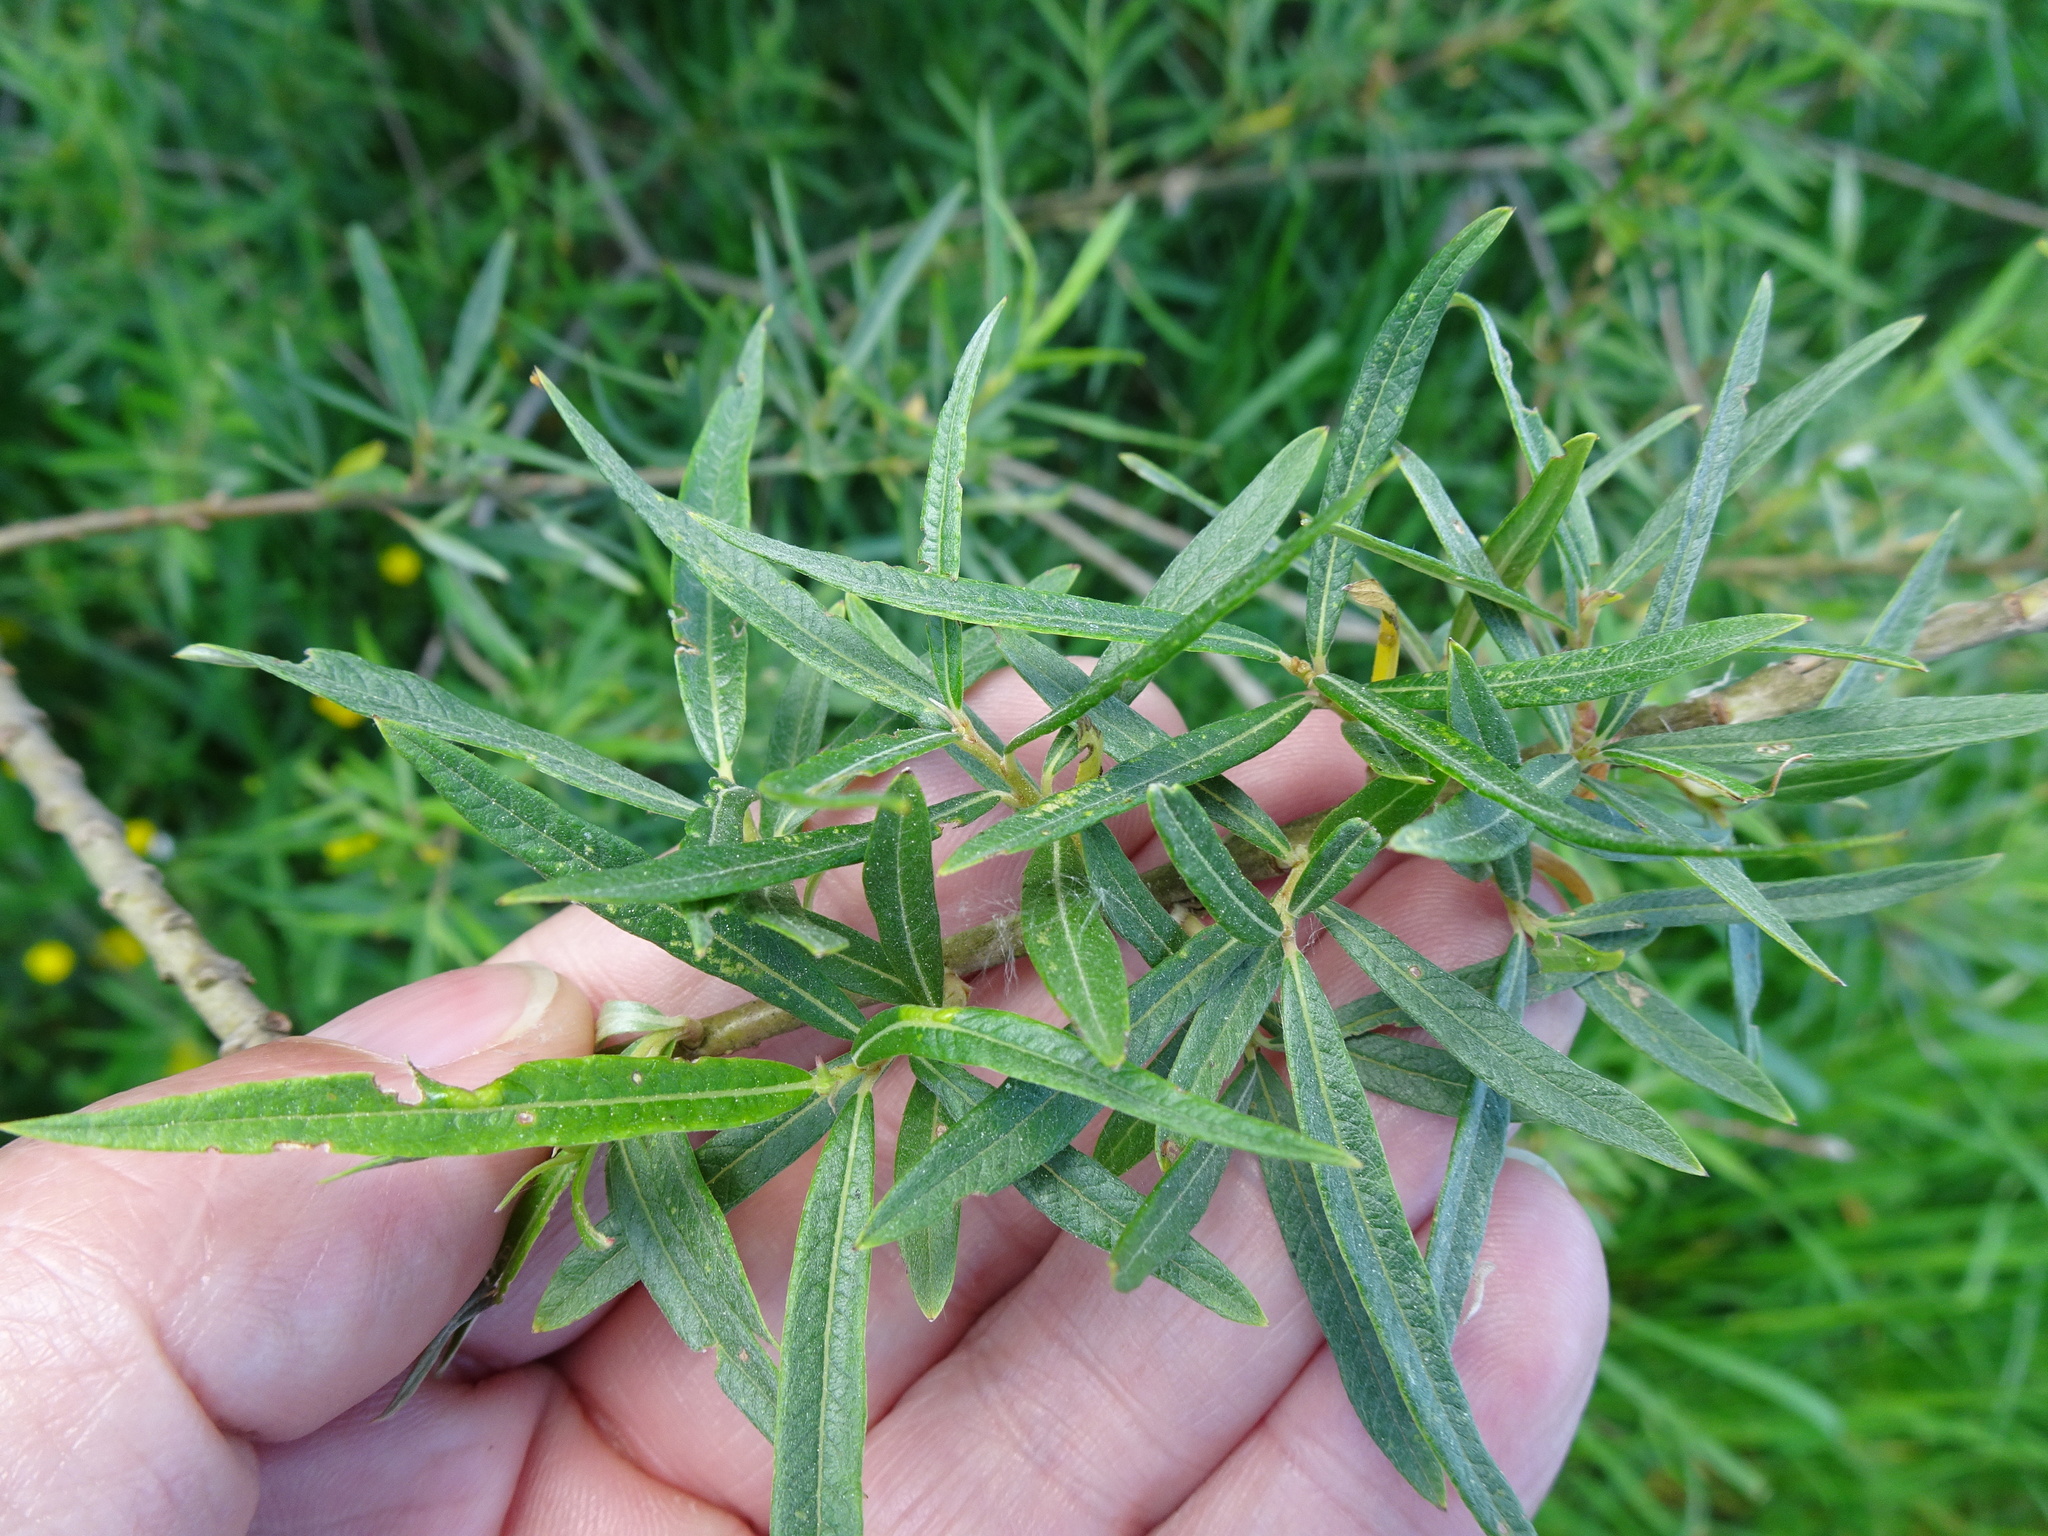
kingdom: Plantae
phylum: Tracheophyta
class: Magnoliopsida
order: Malpighiales
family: Salicaceae
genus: Salix
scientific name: Salix viminalis
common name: Osier
